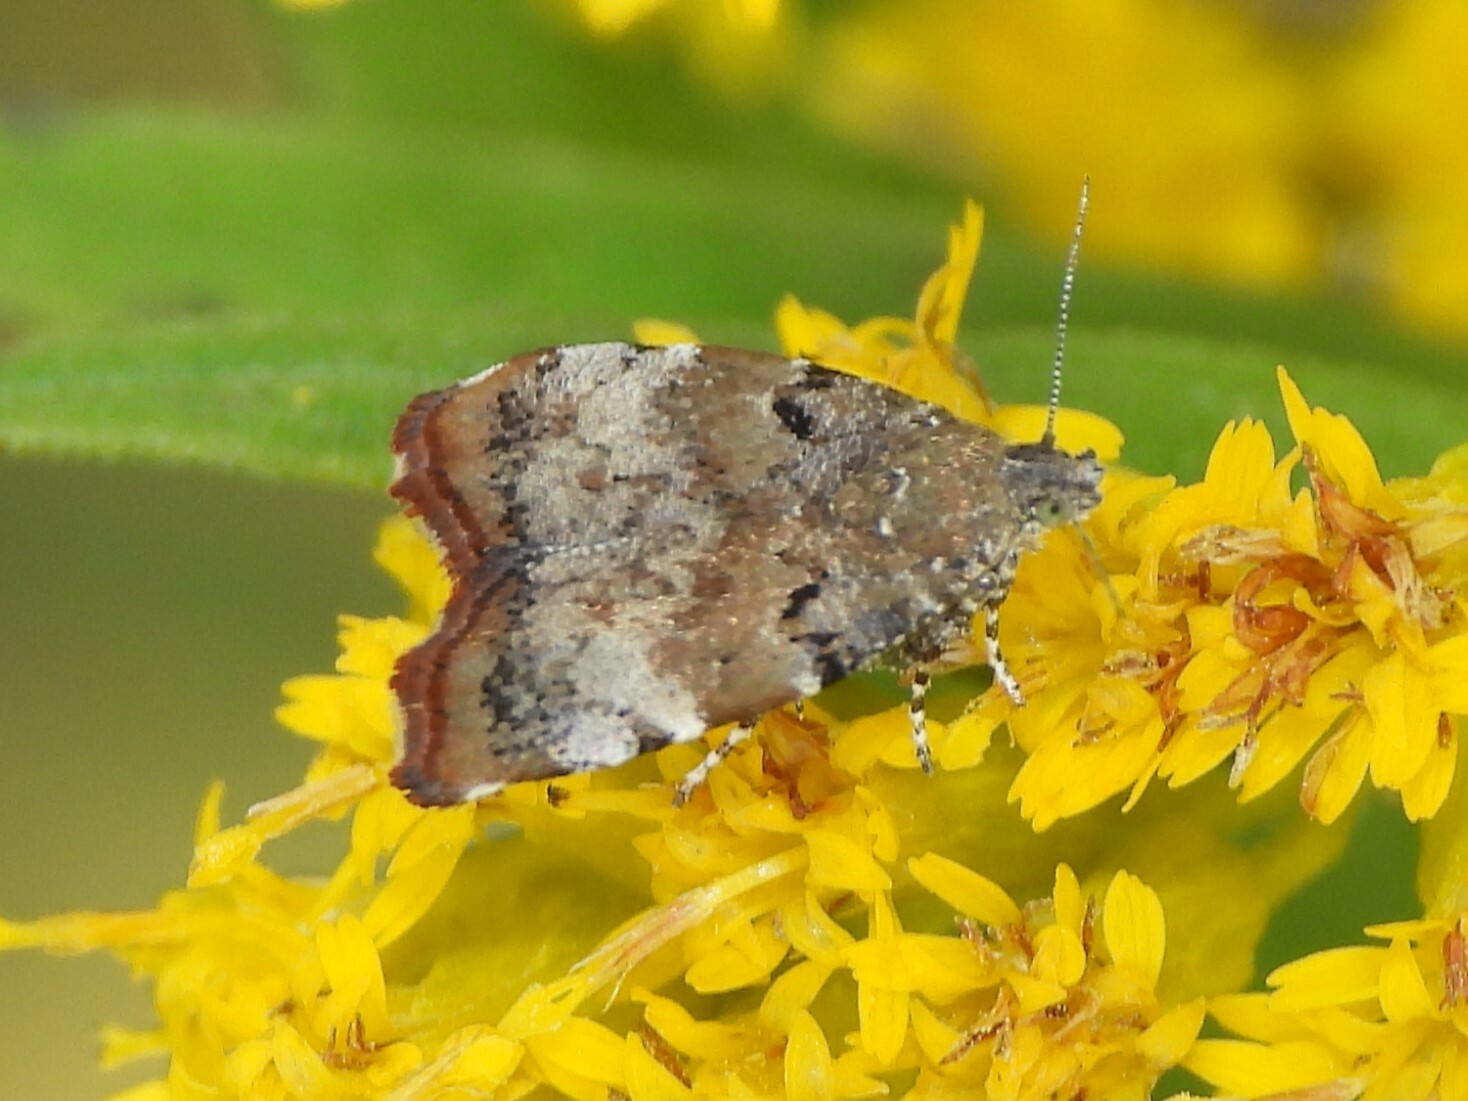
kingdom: Animalia
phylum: Arthropoda
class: Insecta
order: Lepidoptera
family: Choreutidae
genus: Choreutis
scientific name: Choreutis pariana
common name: Apple leaf skeletoniser
